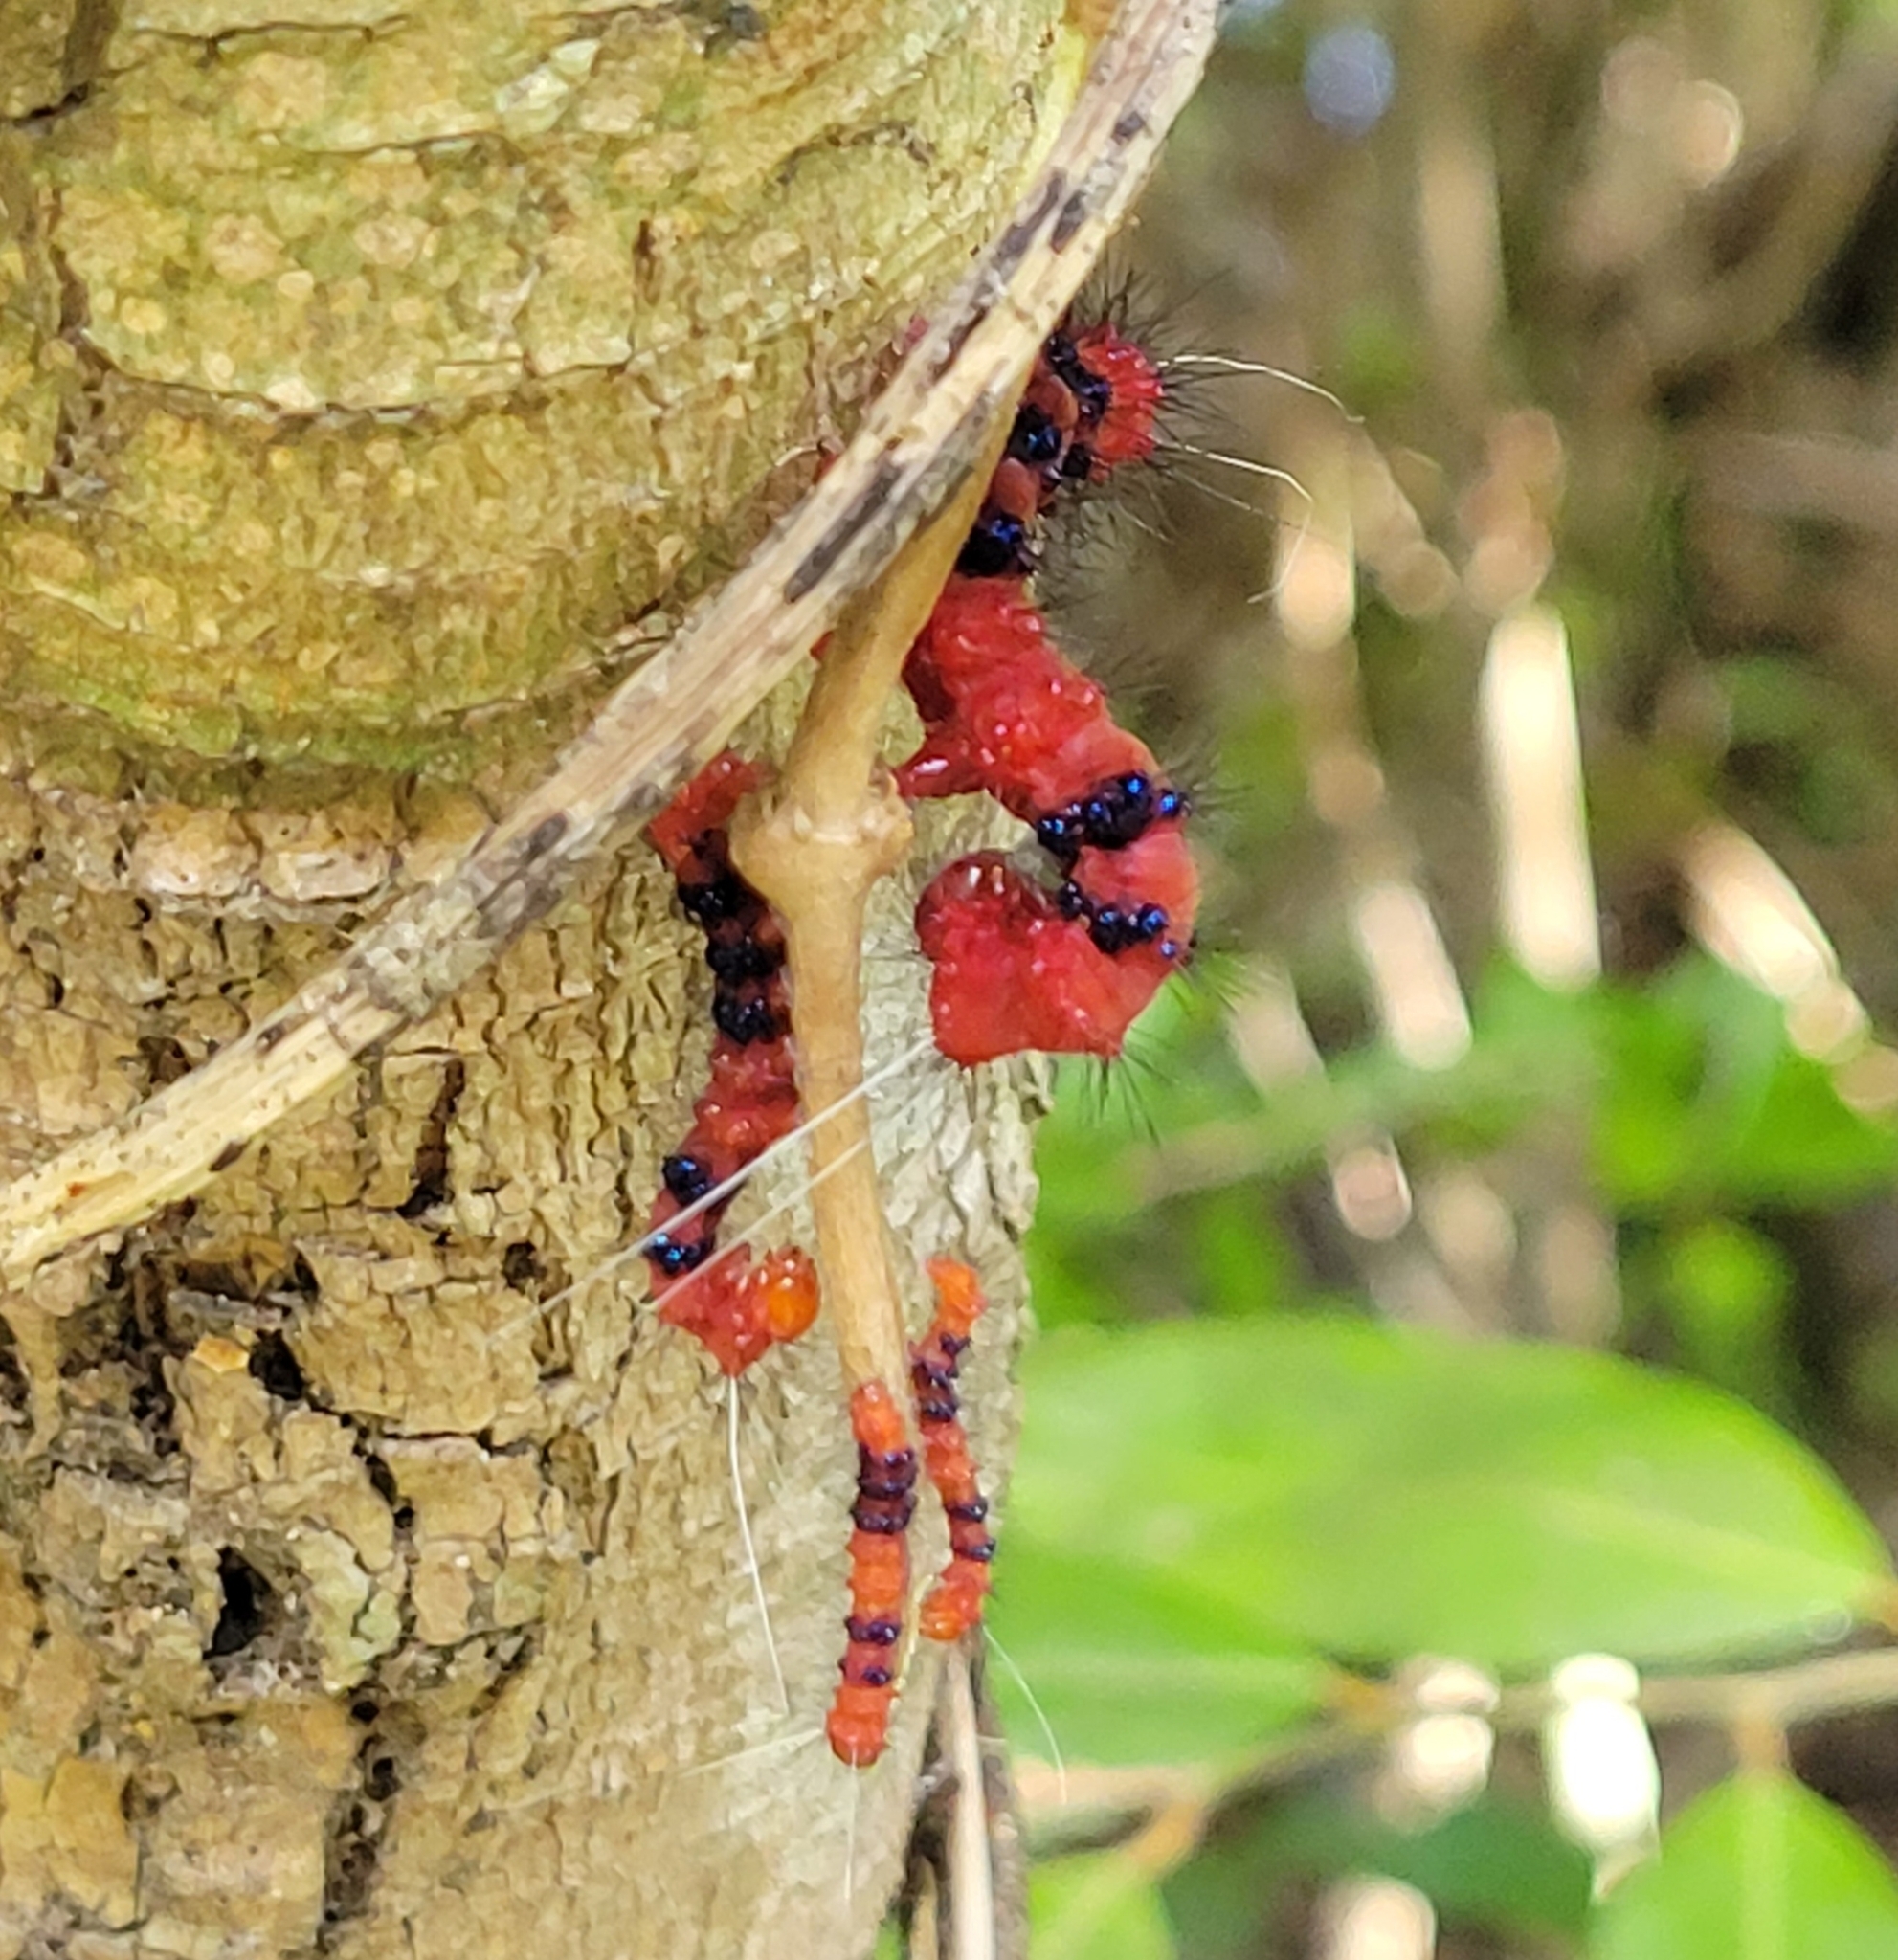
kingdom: Animalia
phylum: Arthropoda
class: Insecta
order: Lepidoptera
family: Erebidae
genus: Composia
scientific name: Composia fidelissima
